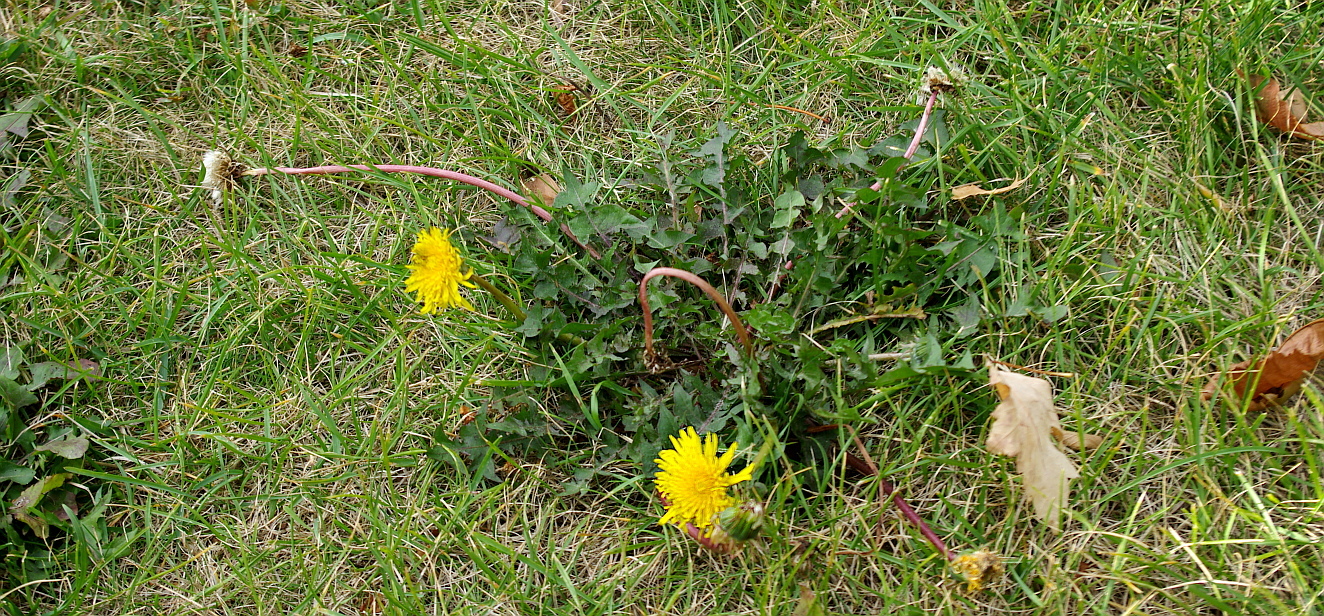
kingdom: Plantae
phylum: Tracheophyta
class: Magnoliopsida
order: Asterales
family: Asteraceae
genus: Taraxacum
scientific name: Taraxacum officinale
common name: Common dandelion
